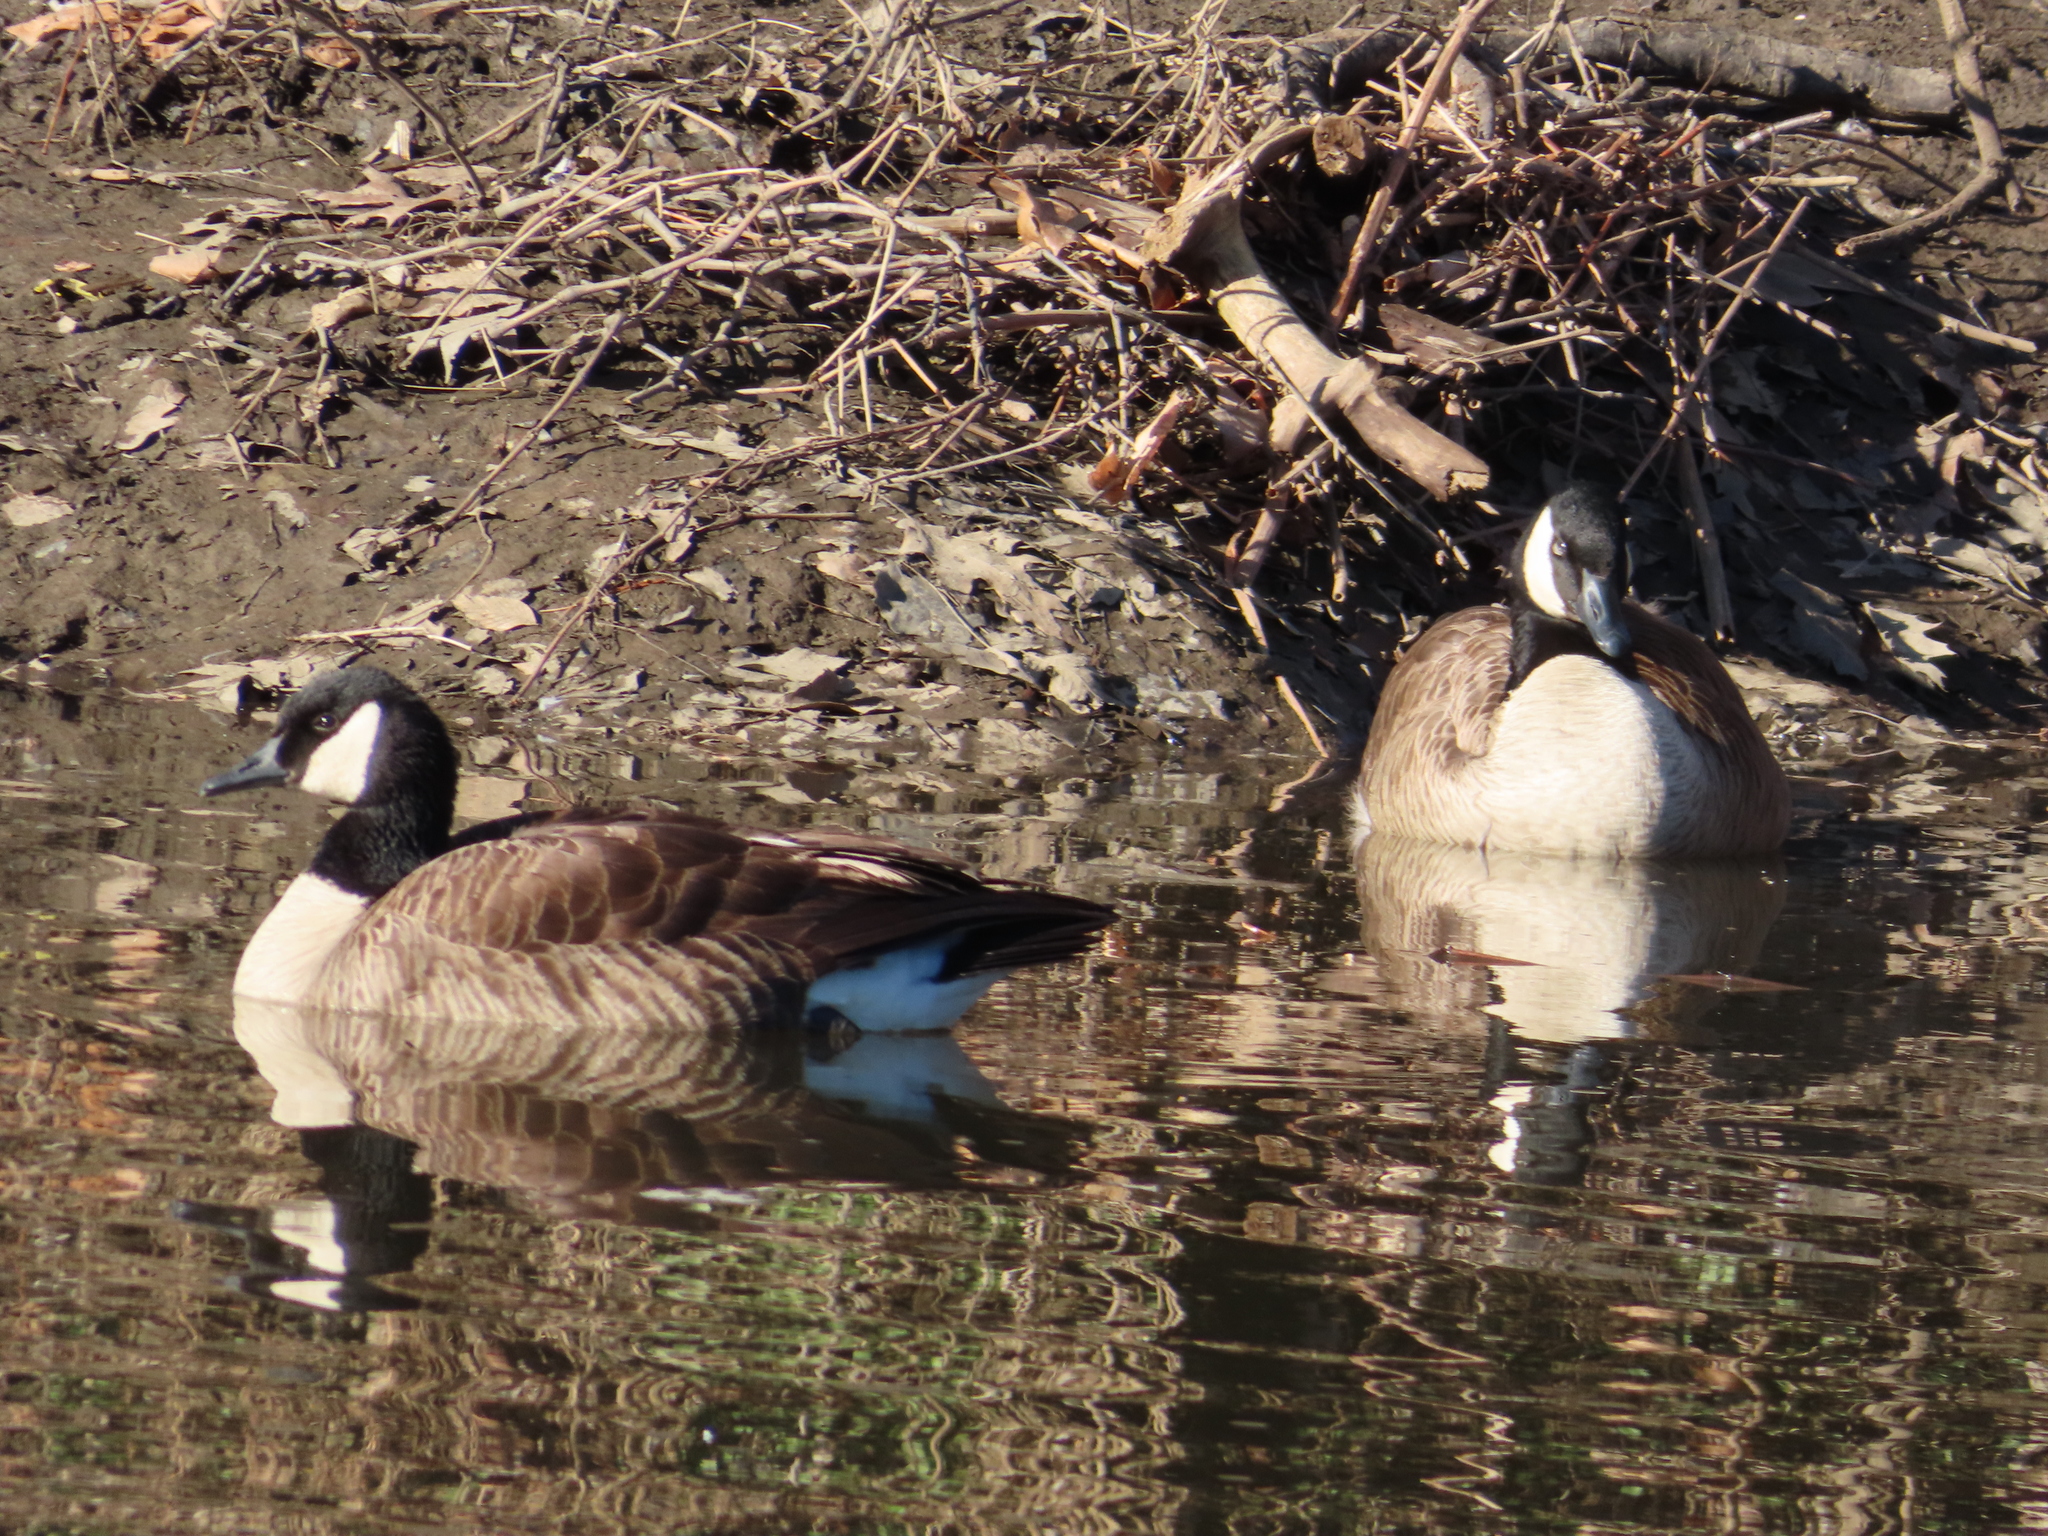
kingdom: Animalia
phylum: Chordata
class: Aves
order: Anseriformes
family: Anatidae
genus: Branta
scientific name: Branta canadensis
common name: Canada goose
